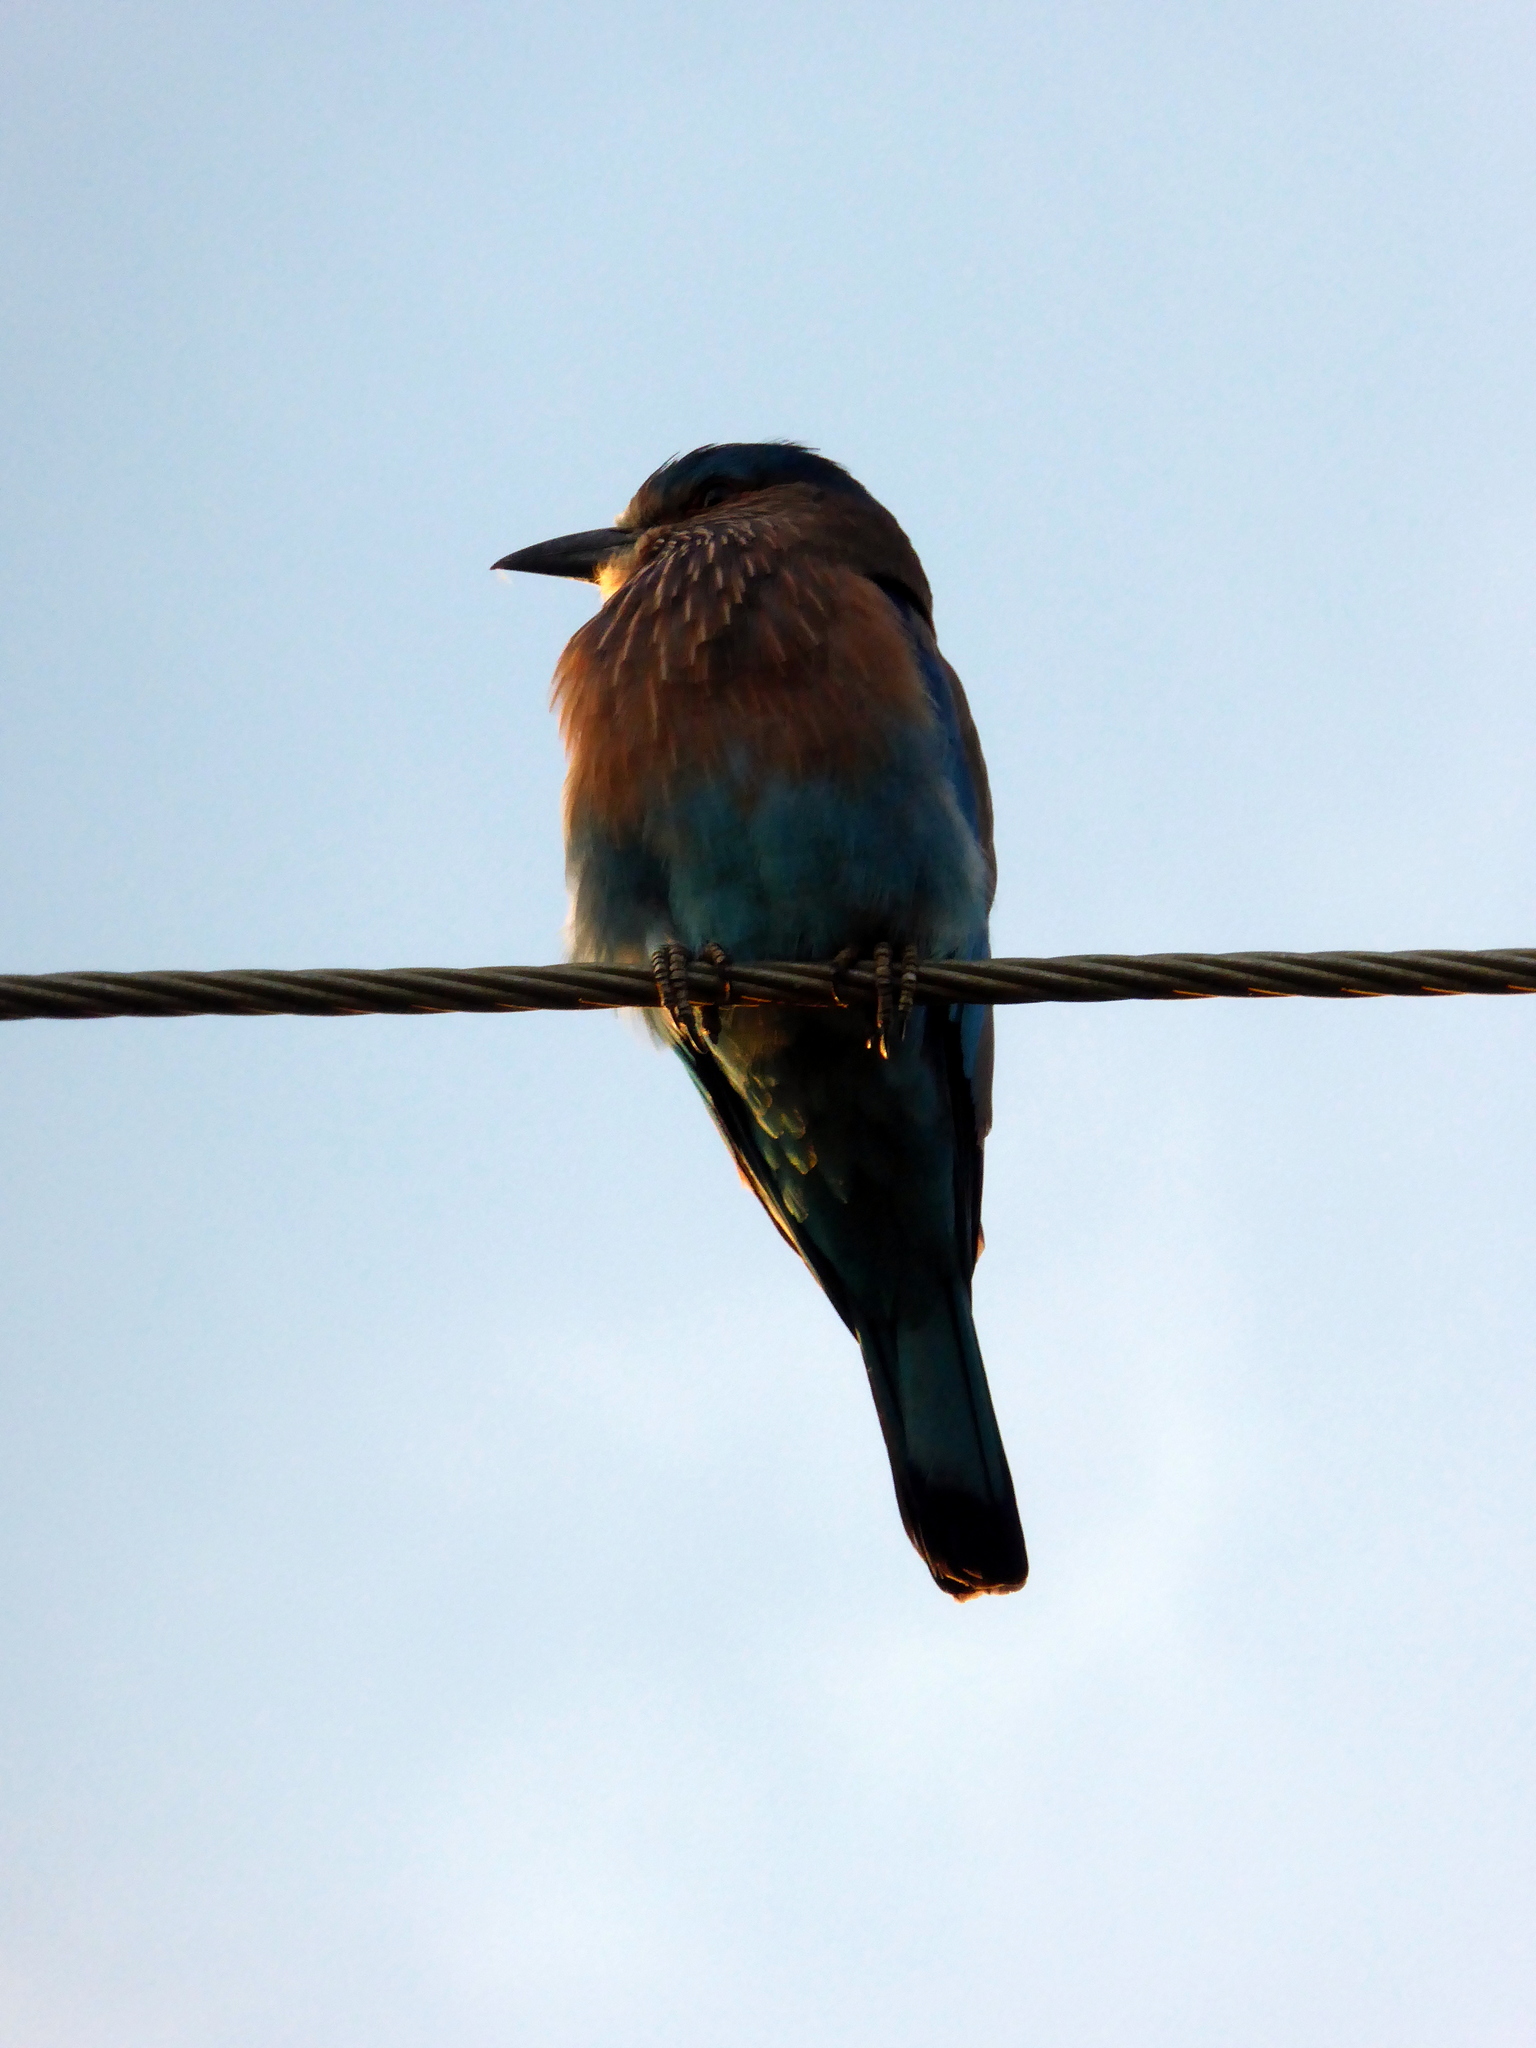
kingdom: Animalia
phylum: Chordata
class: Aves
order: Coraciiformes
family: Coraciidae
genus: Coracias
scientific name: Coracias benghalensis
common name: Indian roller
